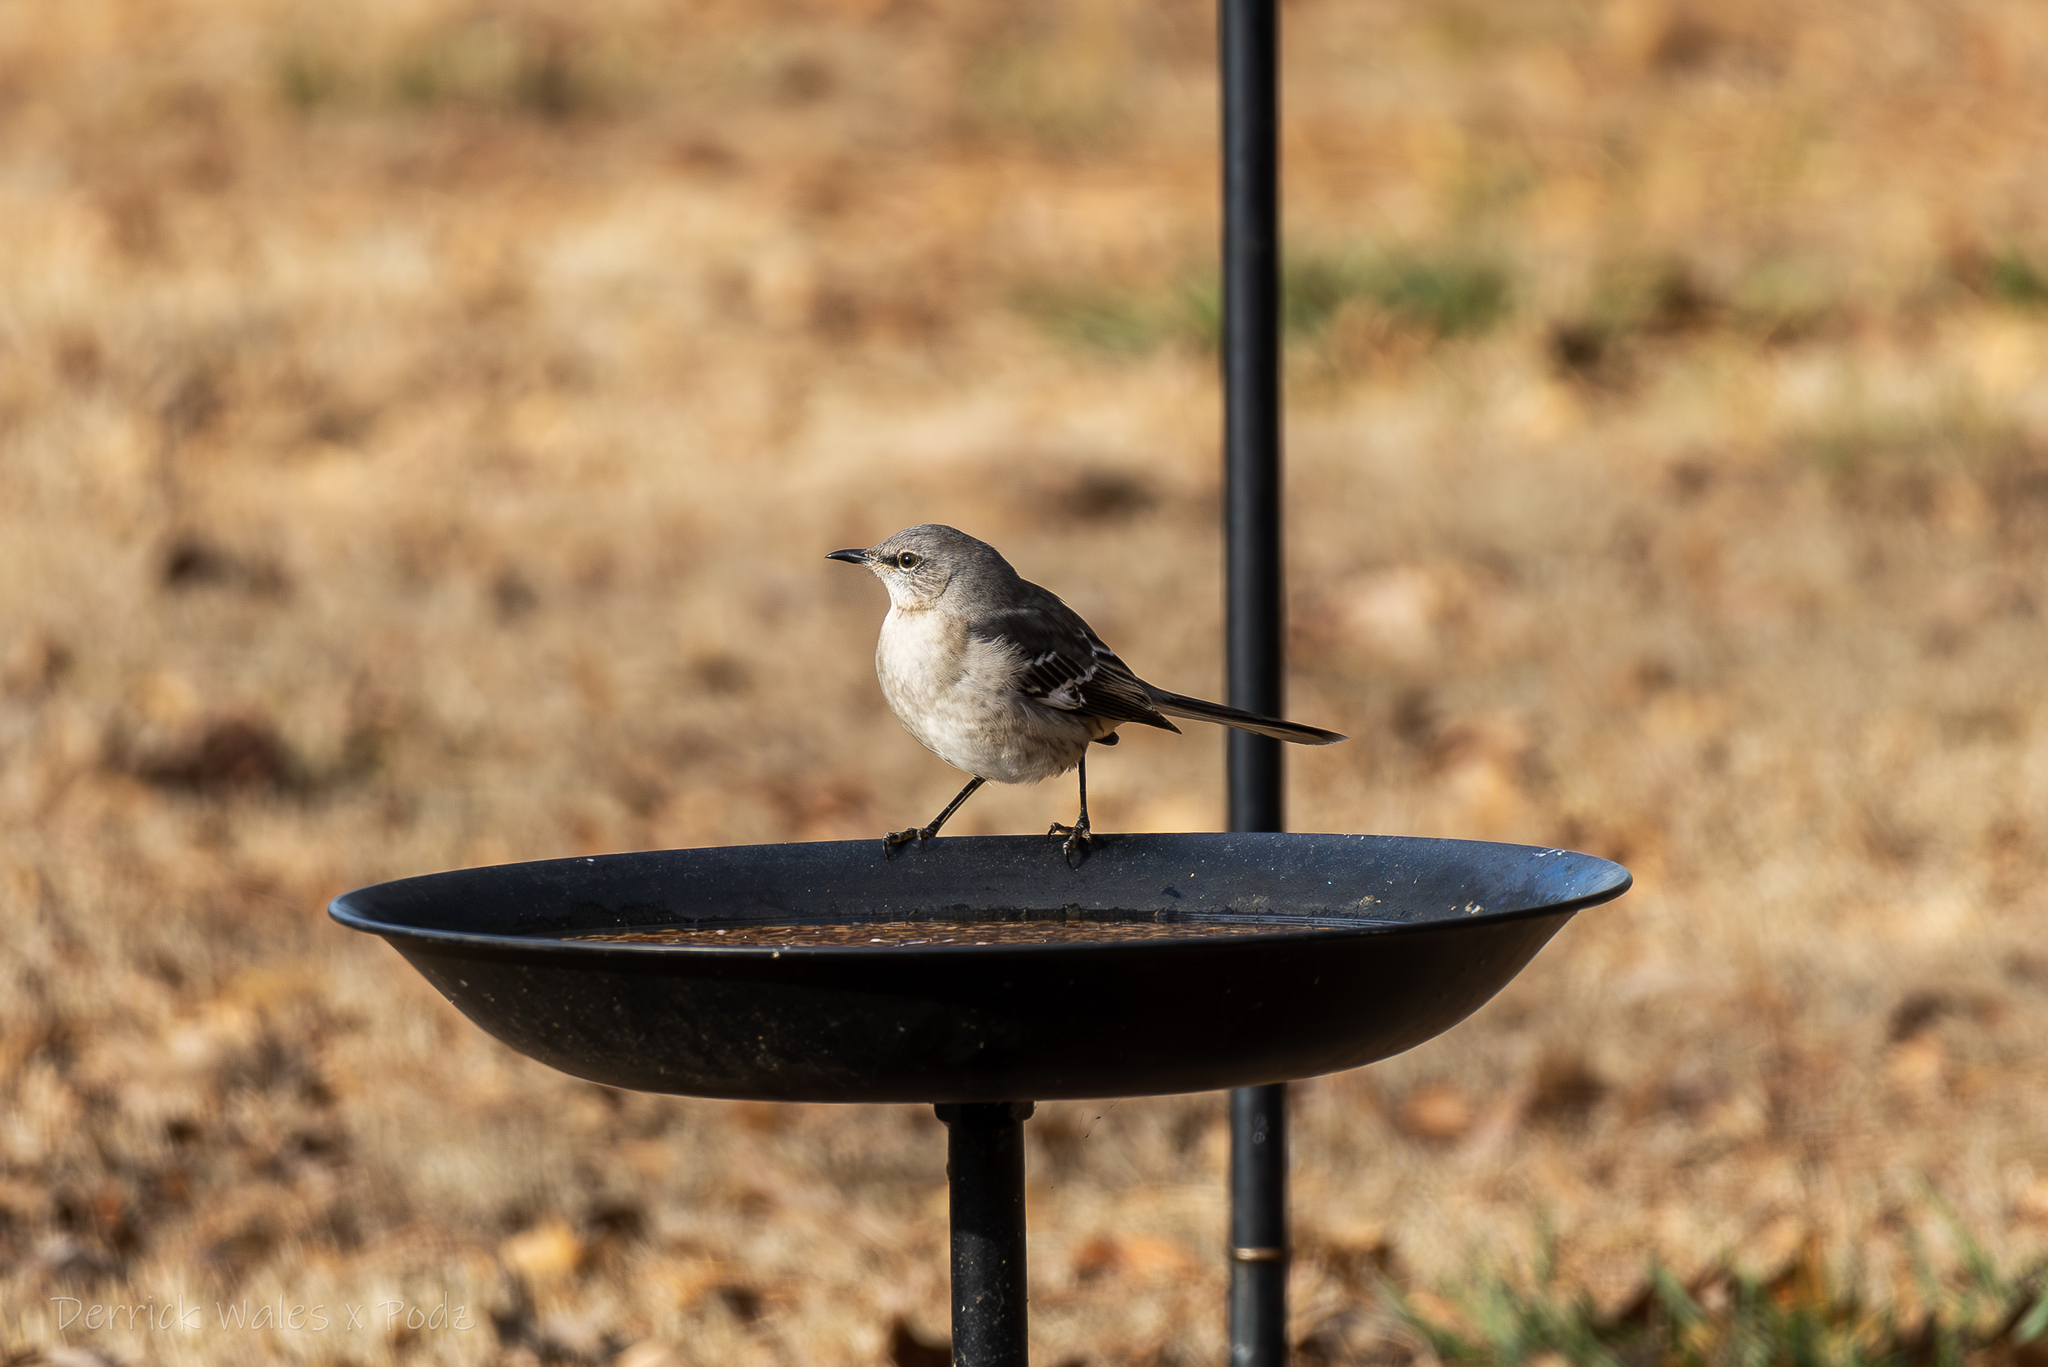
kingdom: Animalia
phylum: Chordata
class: Aves
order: Passeriformes
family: Mimidae
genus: Mimus
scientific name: Mimus polyglottos
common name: Northern mockingbird
